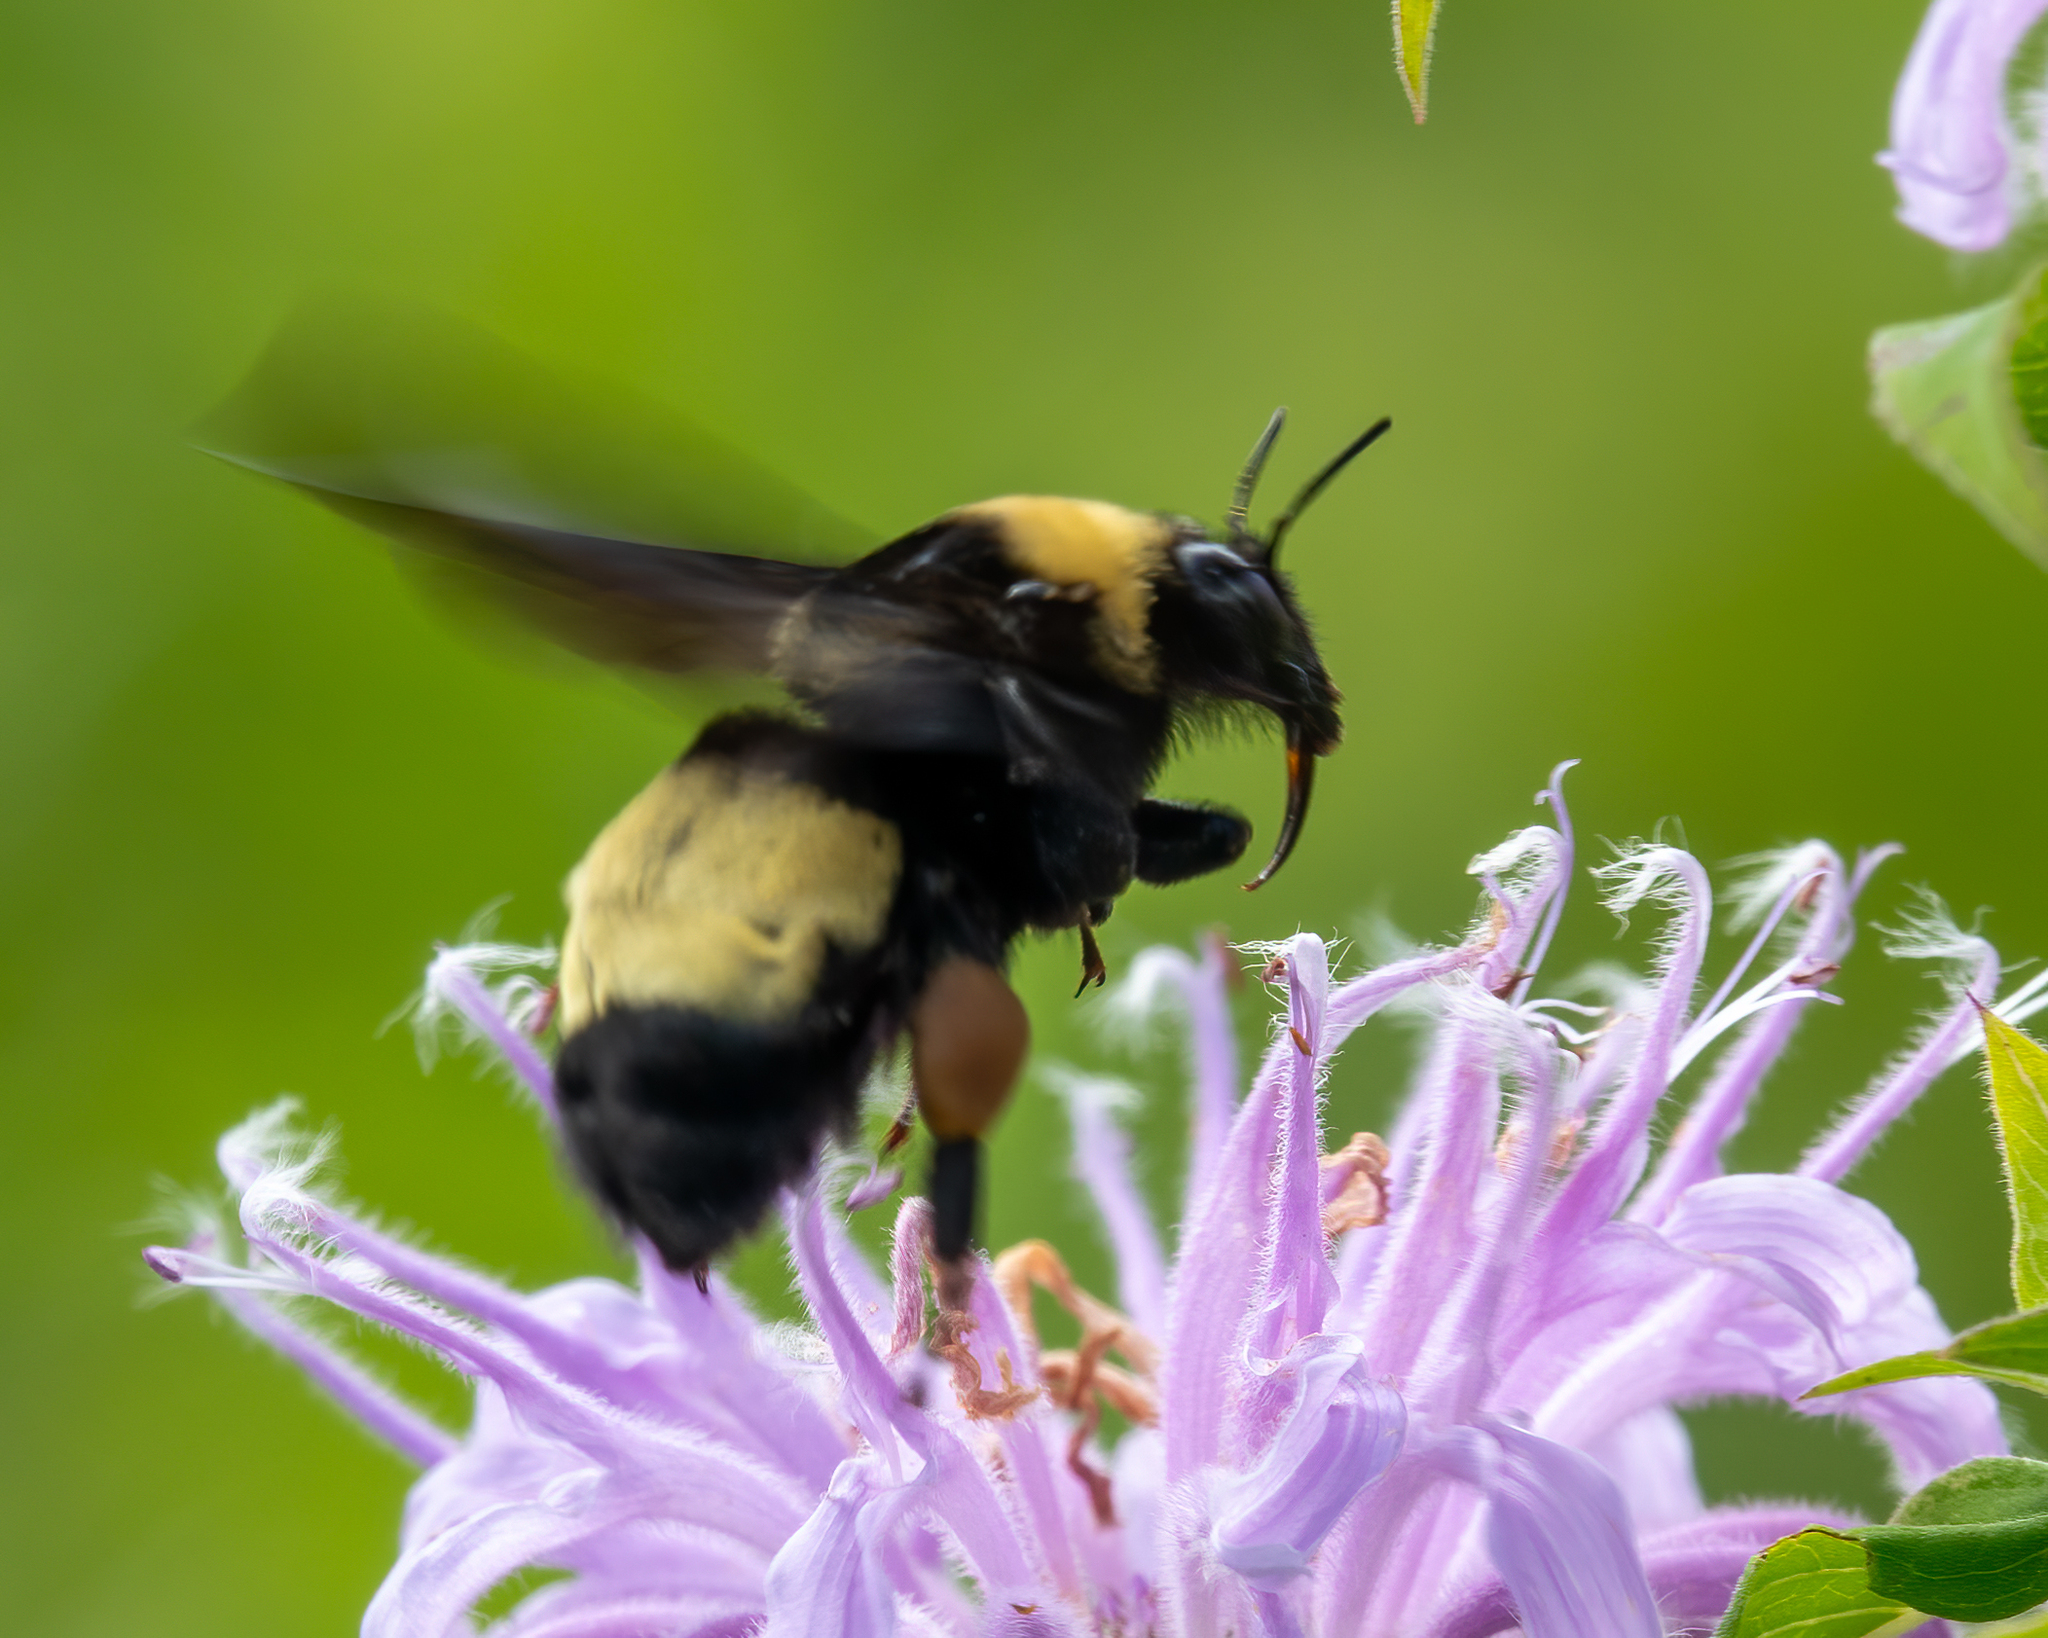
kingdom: Animalia
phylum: Arthropoda
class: Insecta
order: Hymenoptera
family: Apidae
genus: Bombus
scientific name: Bombus auricomus
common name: Black and gold bumble bee
